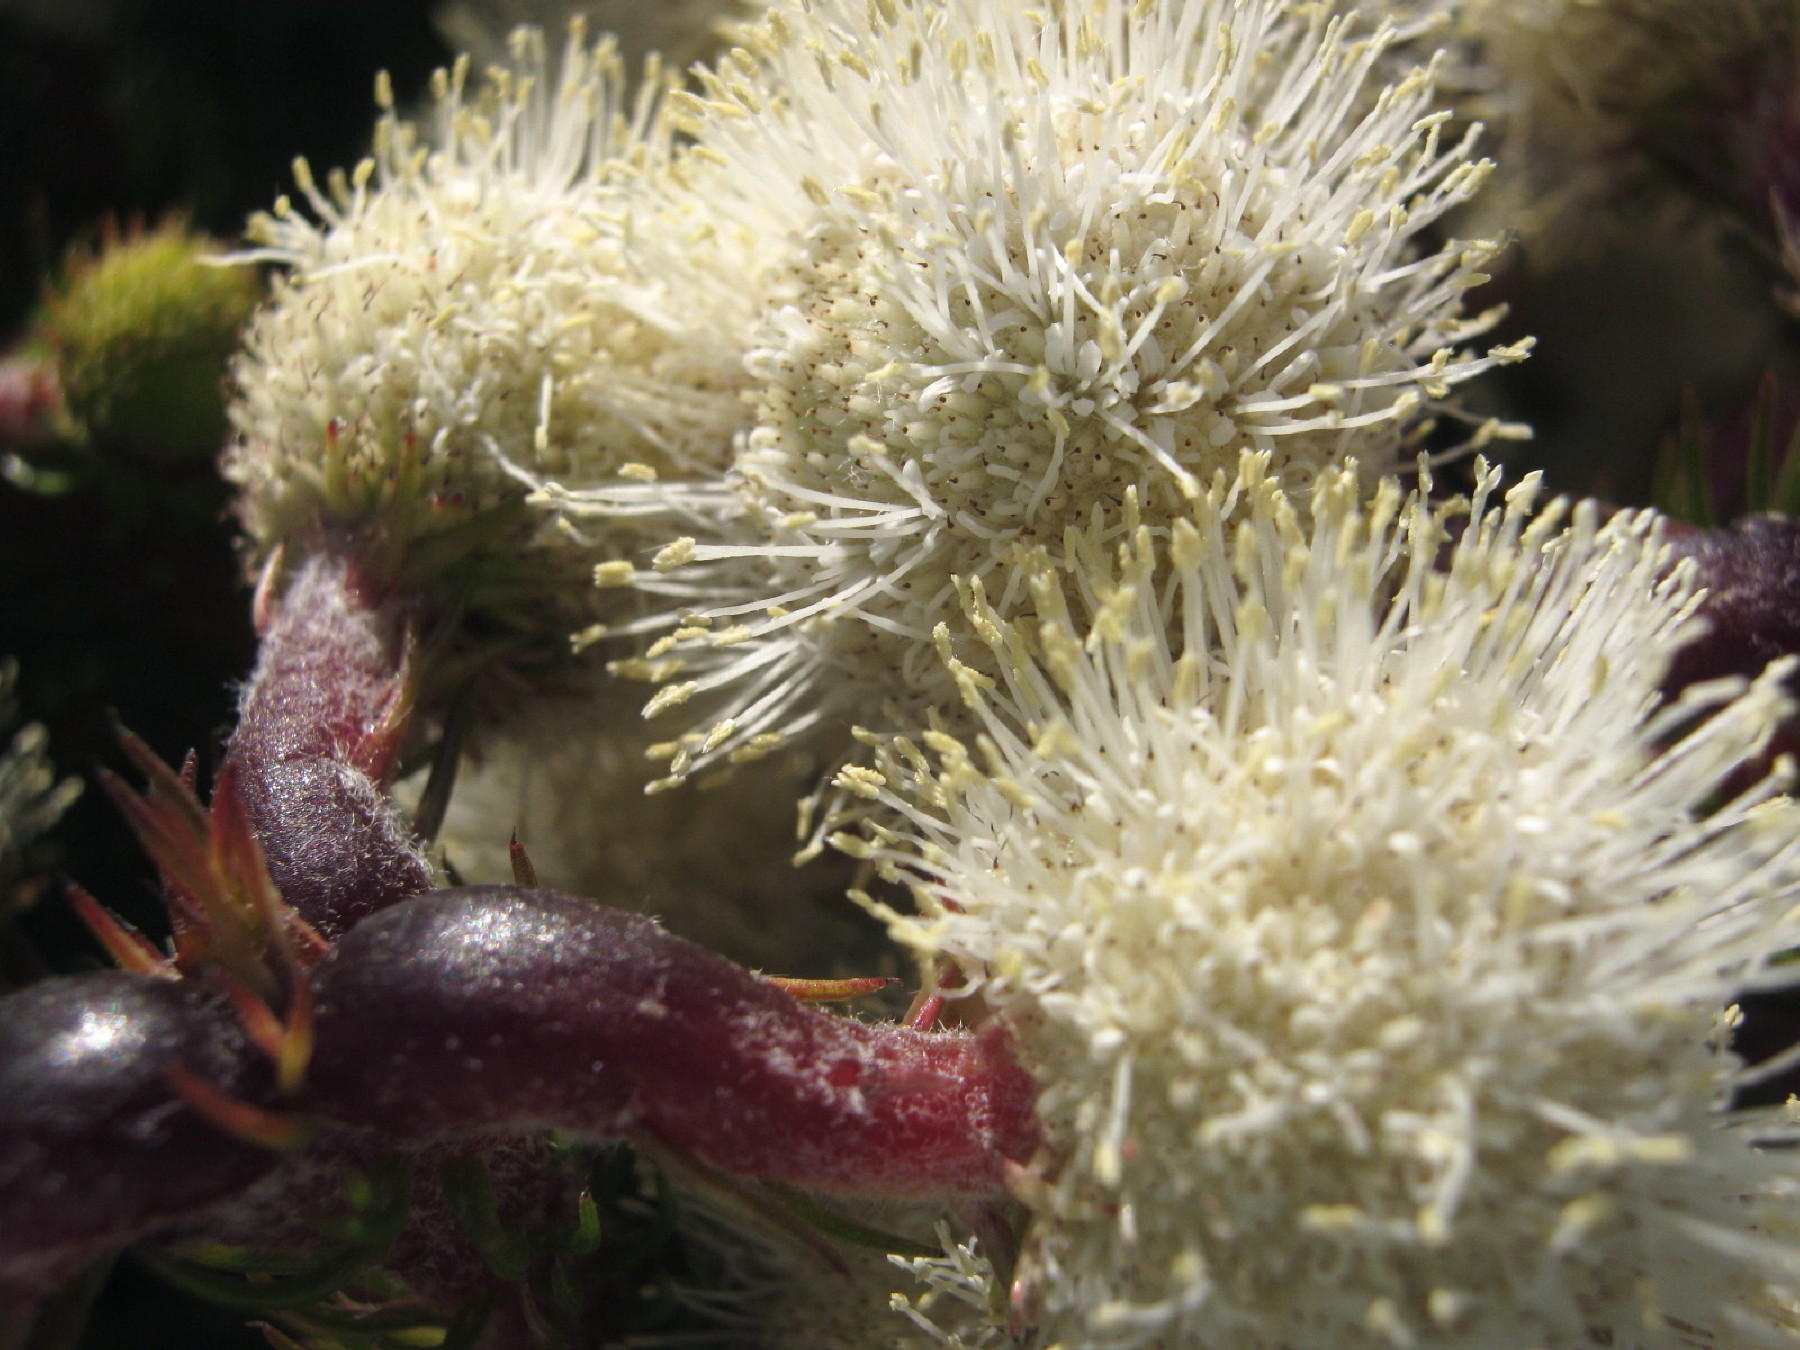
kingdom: Plantae
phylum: Tracheophyta
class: Magnoliopsida
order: Bruniales
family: Bruniaceae
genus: Berzelia
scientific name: Berzelia abrotanoides
